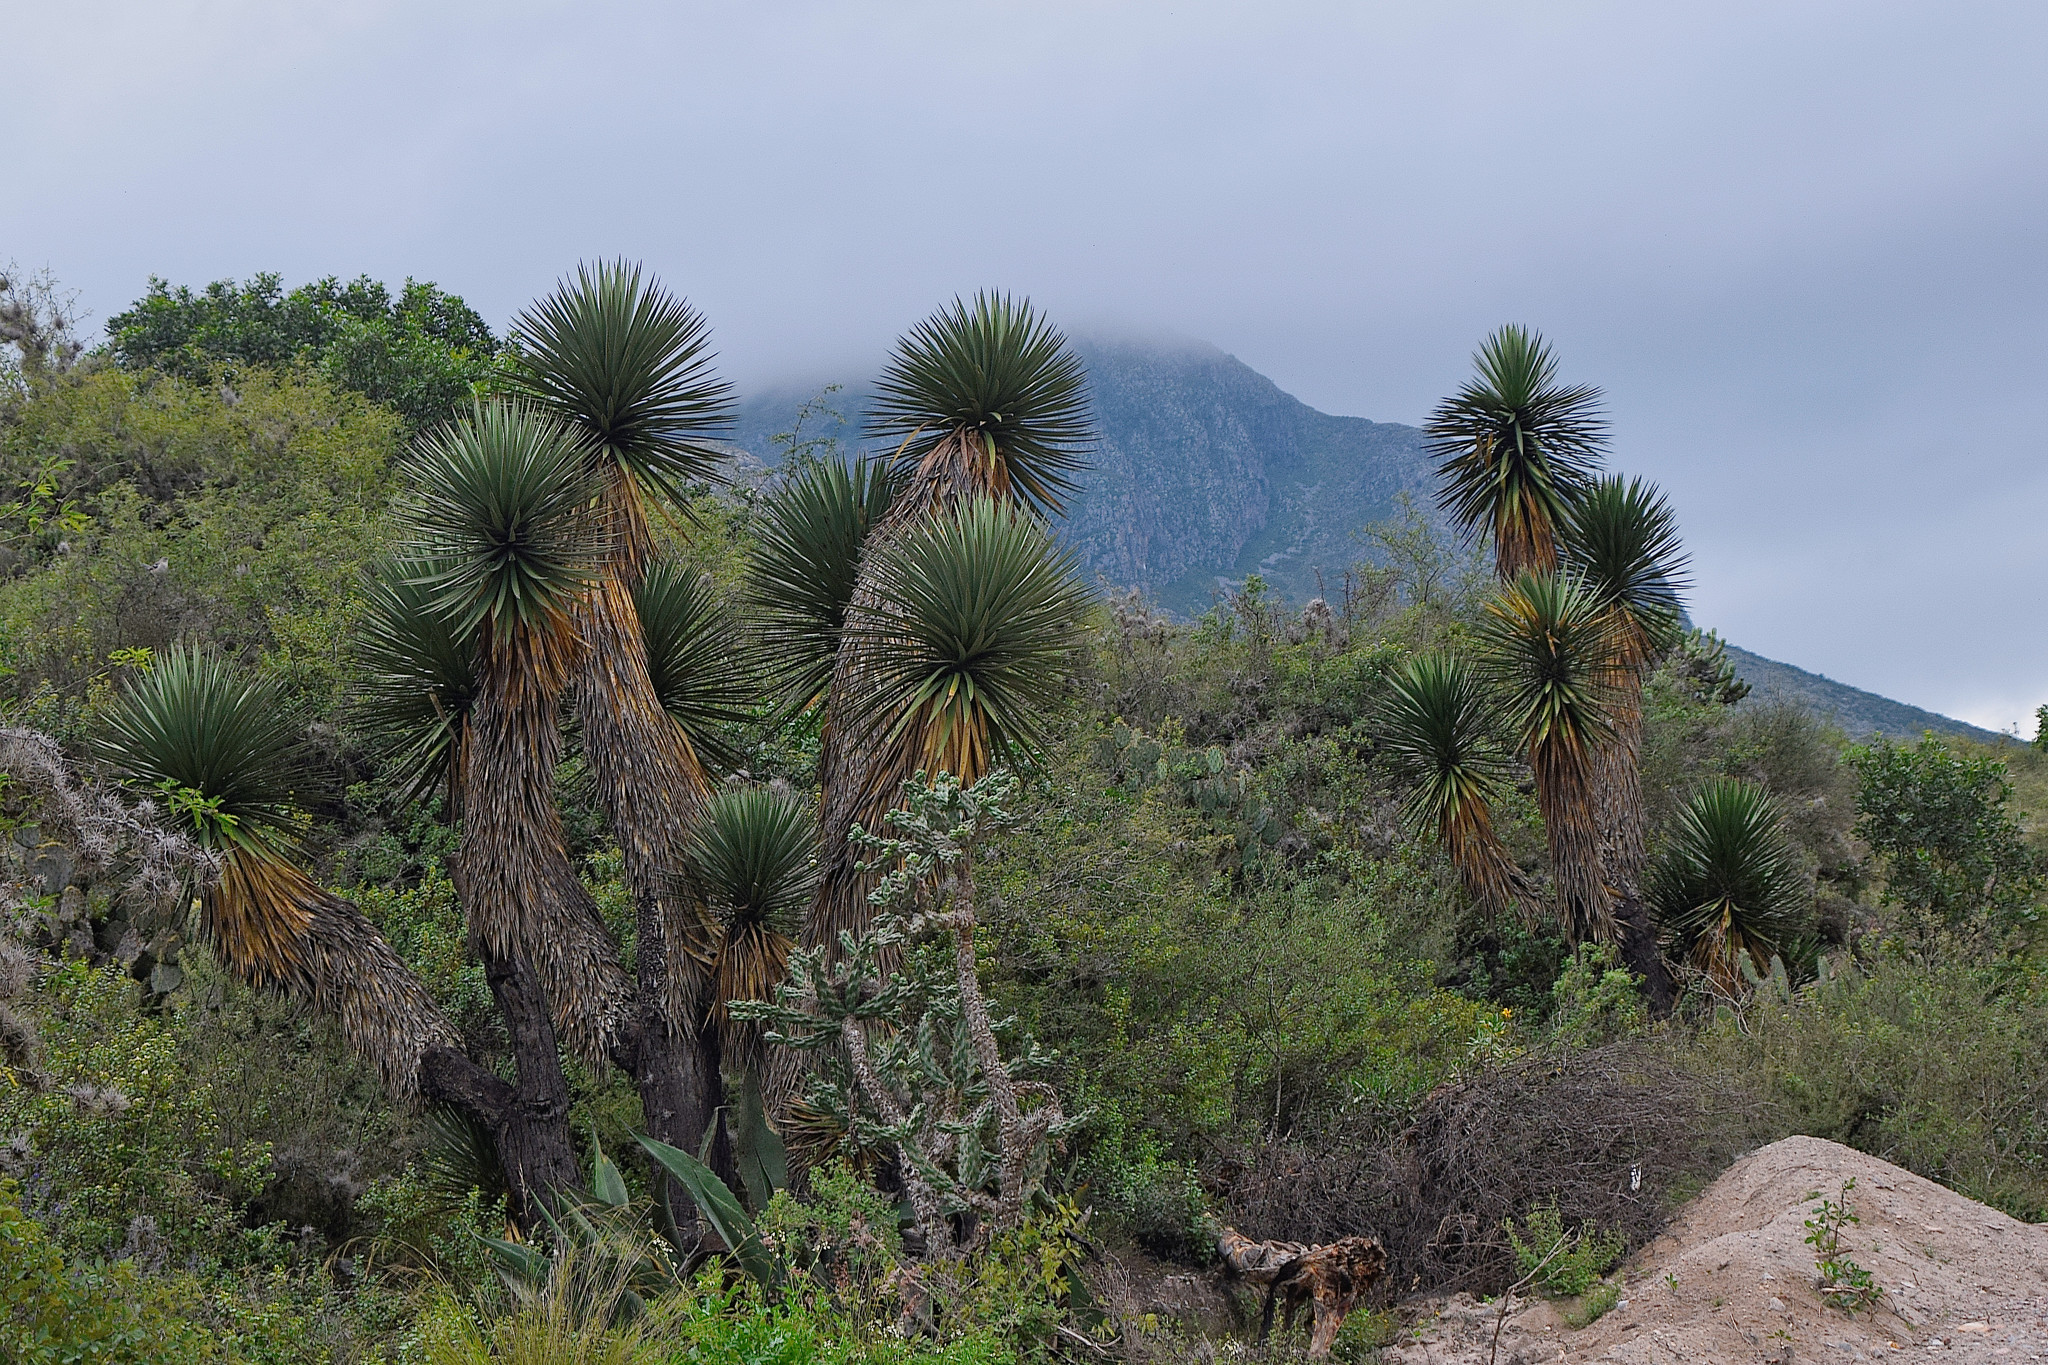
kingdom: Plantae
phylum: Tracheophyta
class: Liliopsida
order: Asparagales
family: Asparagaceae
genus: Yucca
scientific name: Yucca filifera
